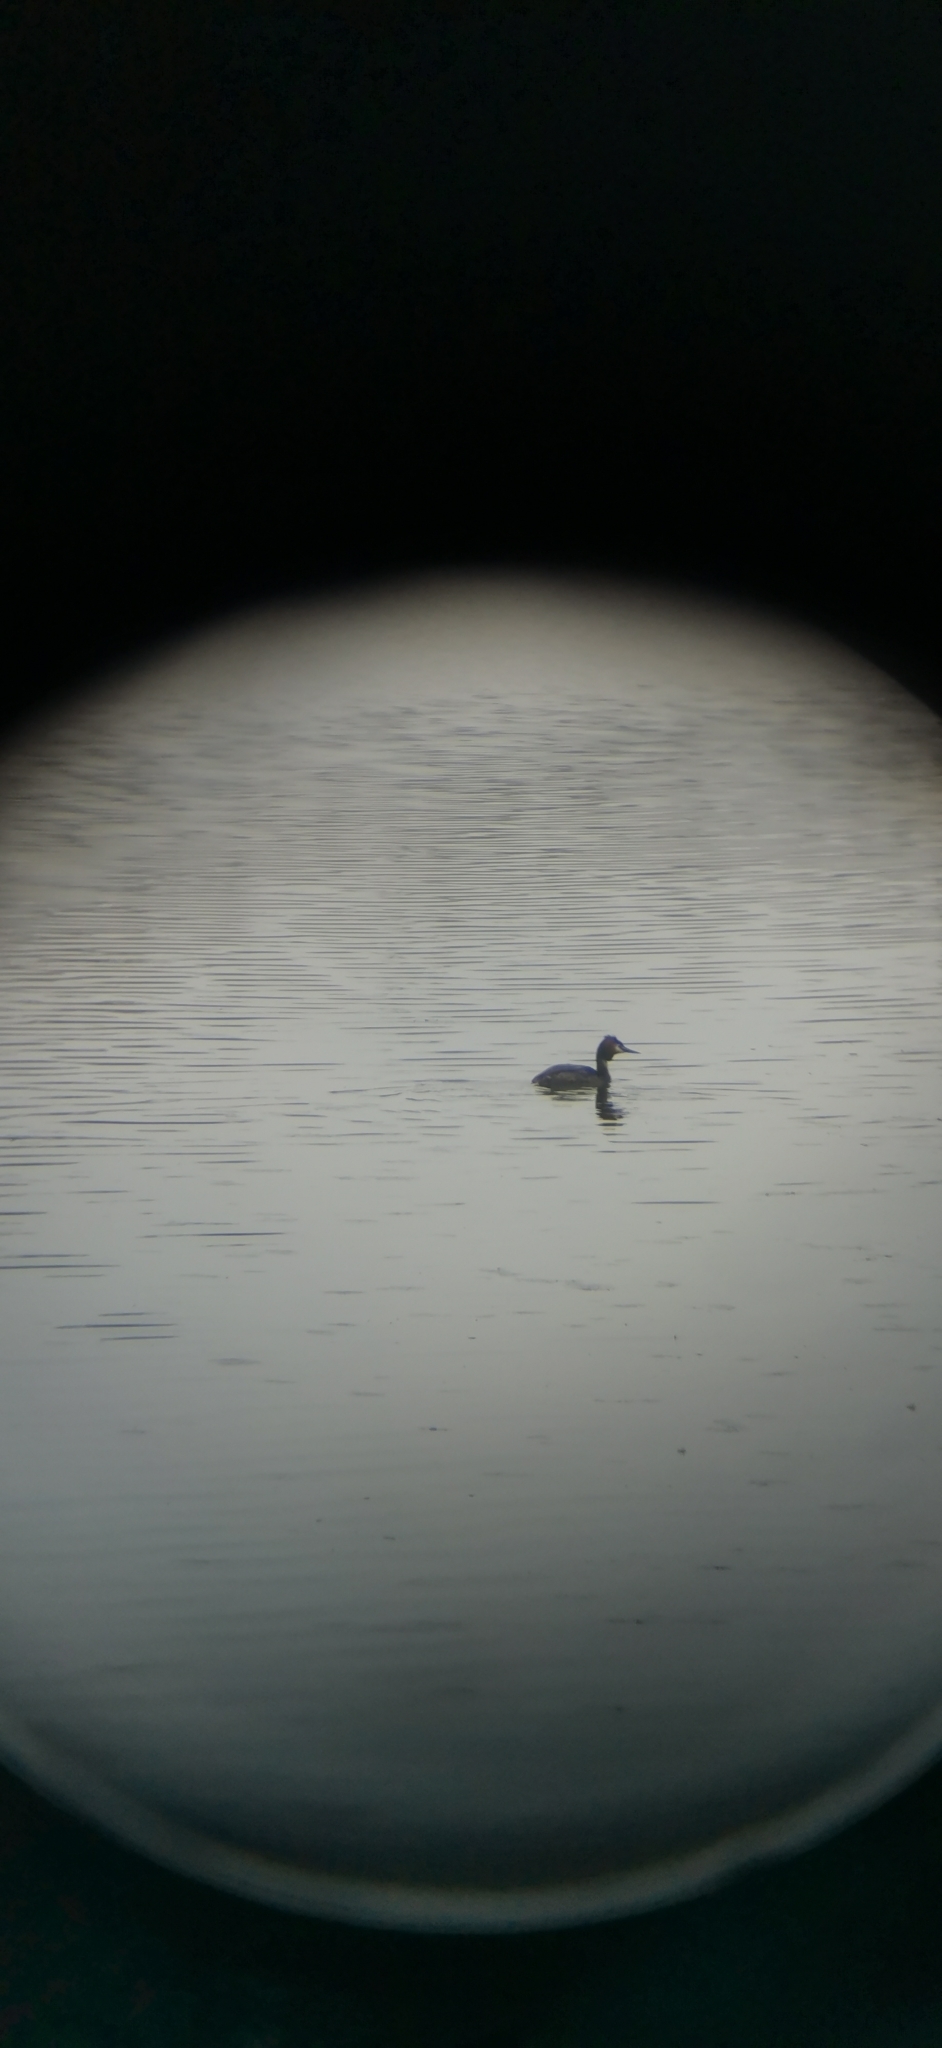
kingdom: Animalia
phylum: Chordata
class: Aves
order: Podicipediformes
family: Podicipedidae
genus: Podiceps
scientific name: Podiceps cristatus
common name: Great crested grebe
